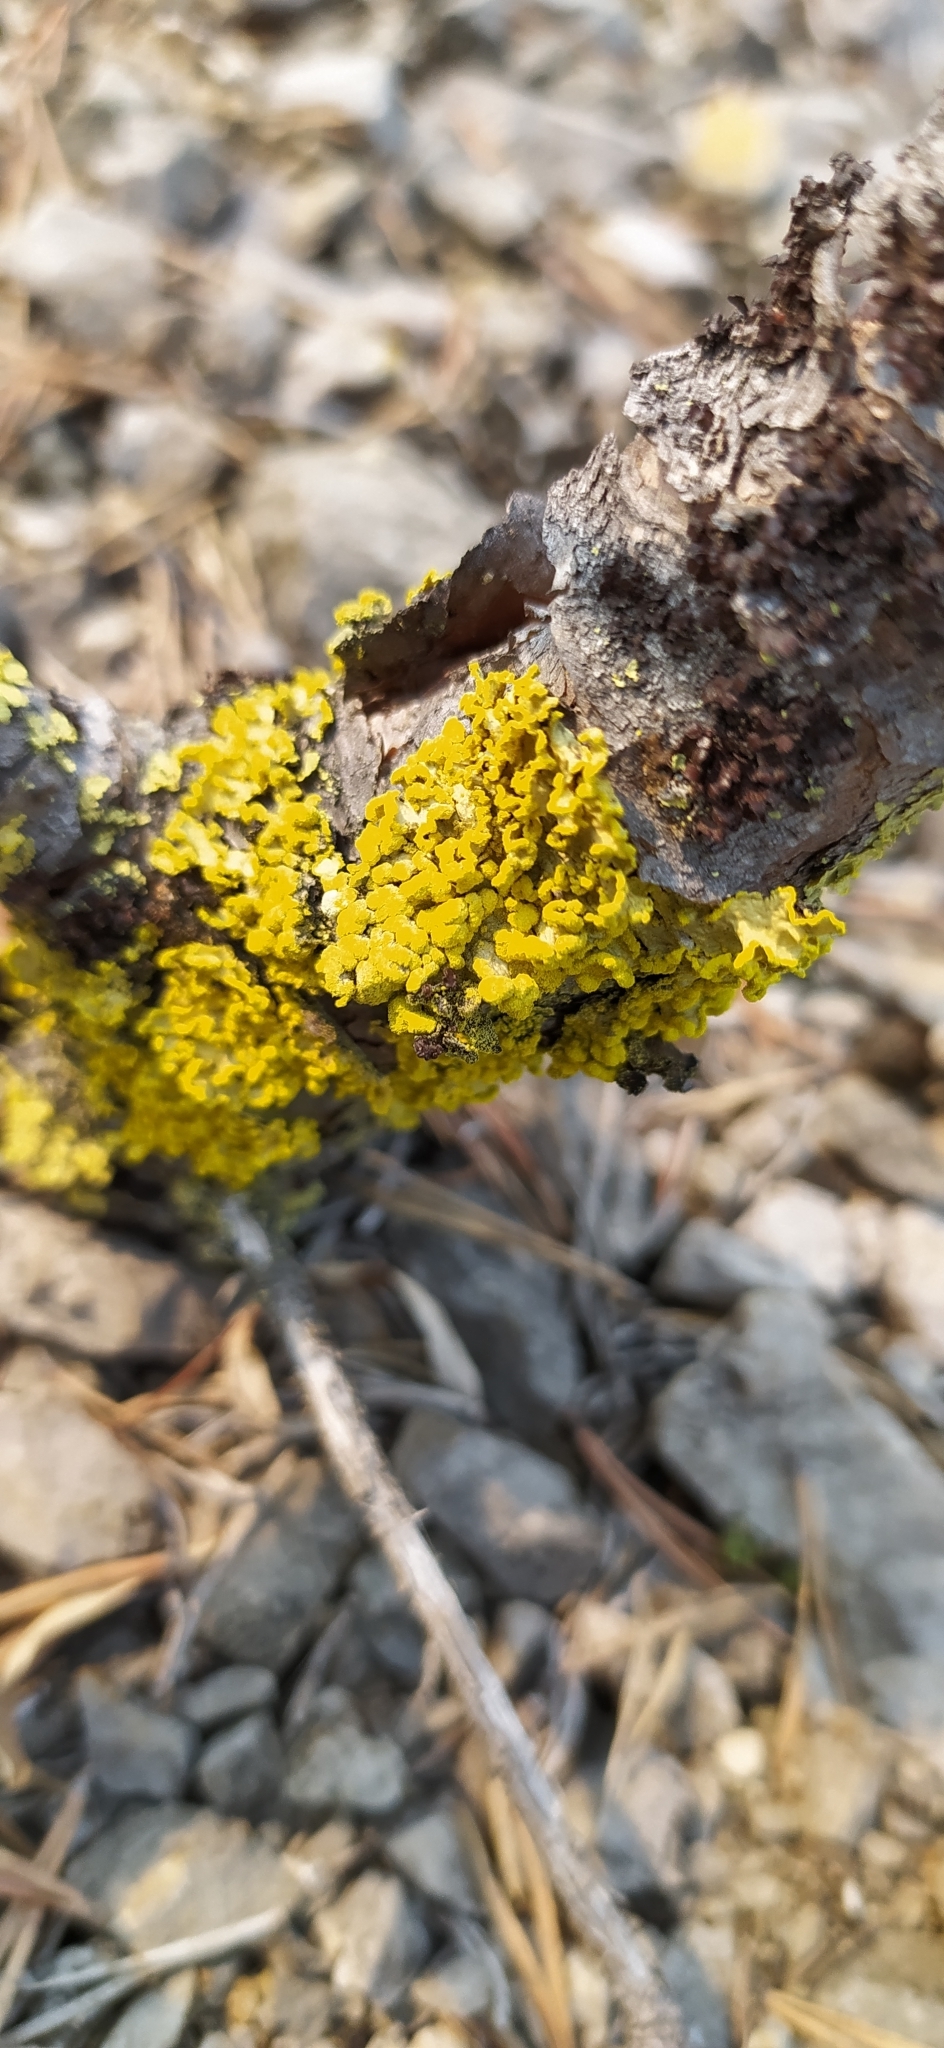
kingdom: Fungi
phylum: Ascomycota
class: Lecanoromycetes
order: Lecanorales
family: Parmeliaceae
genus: Vulpicida
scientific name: Vulpicida pinastri
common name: Powdered sunshine lichen
